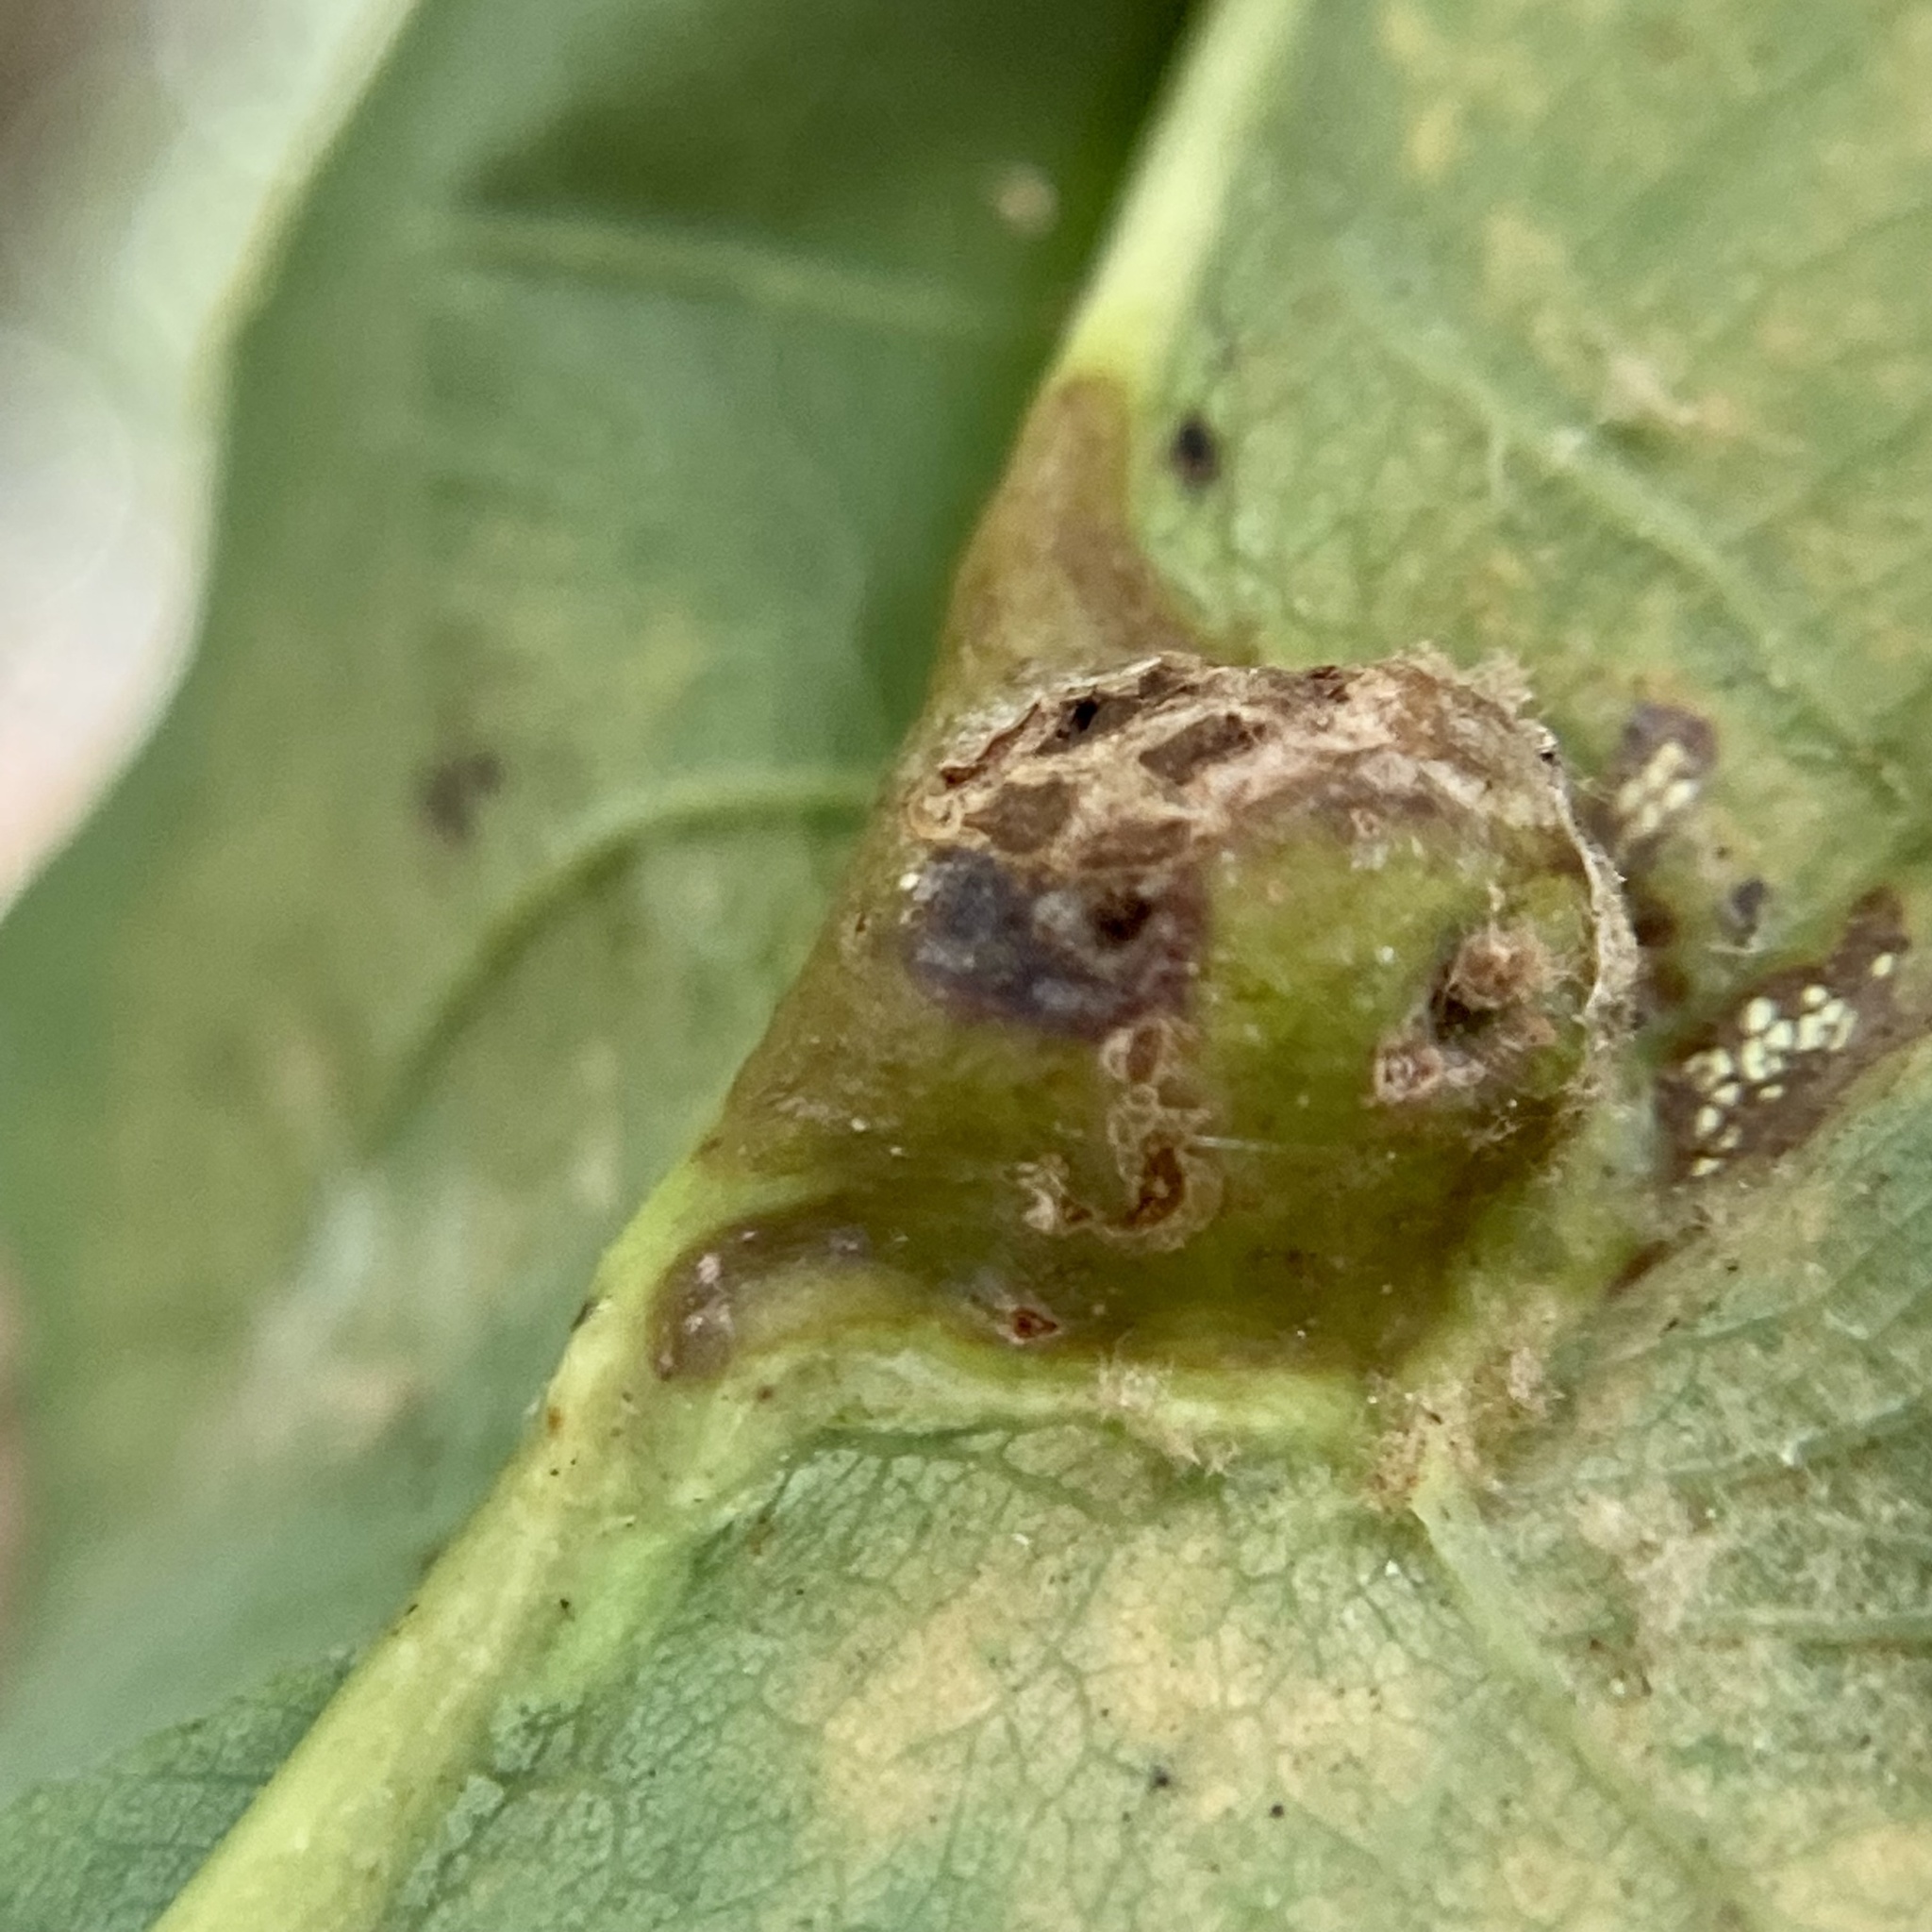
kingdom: Animalia
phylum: Arthropoda
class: Insecta
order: Hymenoptera
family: Cynipidae
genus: Andricus
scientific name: Andricus
